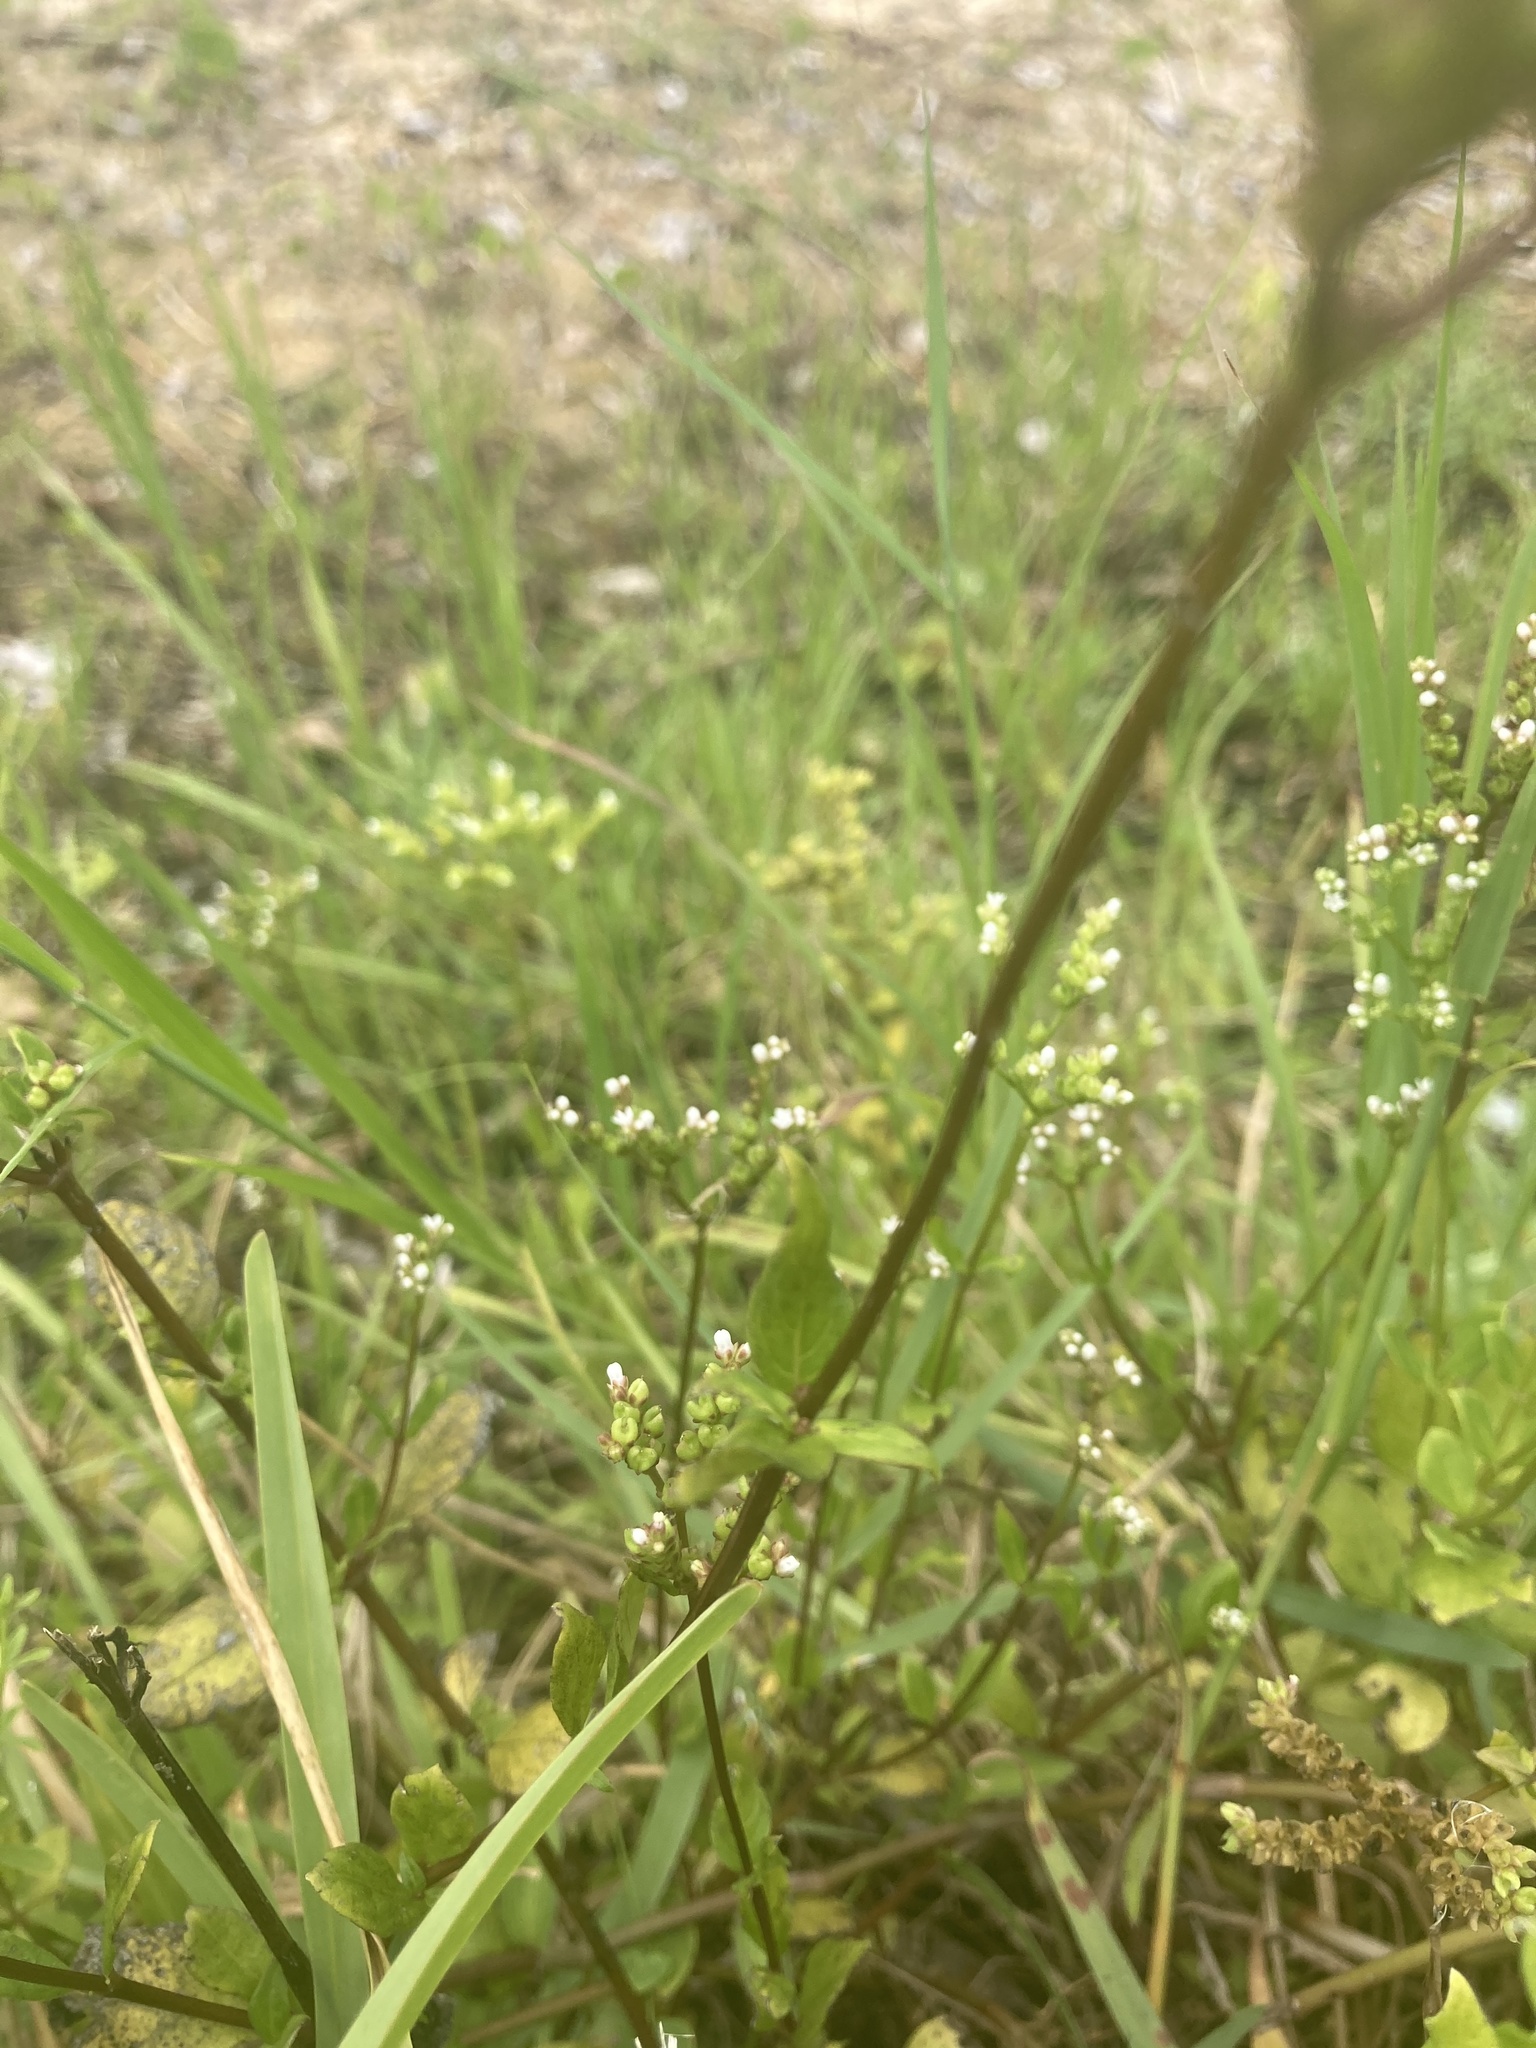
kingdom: Plantae
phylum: Tracheophyta
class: Magnoliopsida
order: Gentianales
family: Loganiaceae
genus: Mitreola
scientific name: Mitreola petiolata
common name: Lax hornpod
